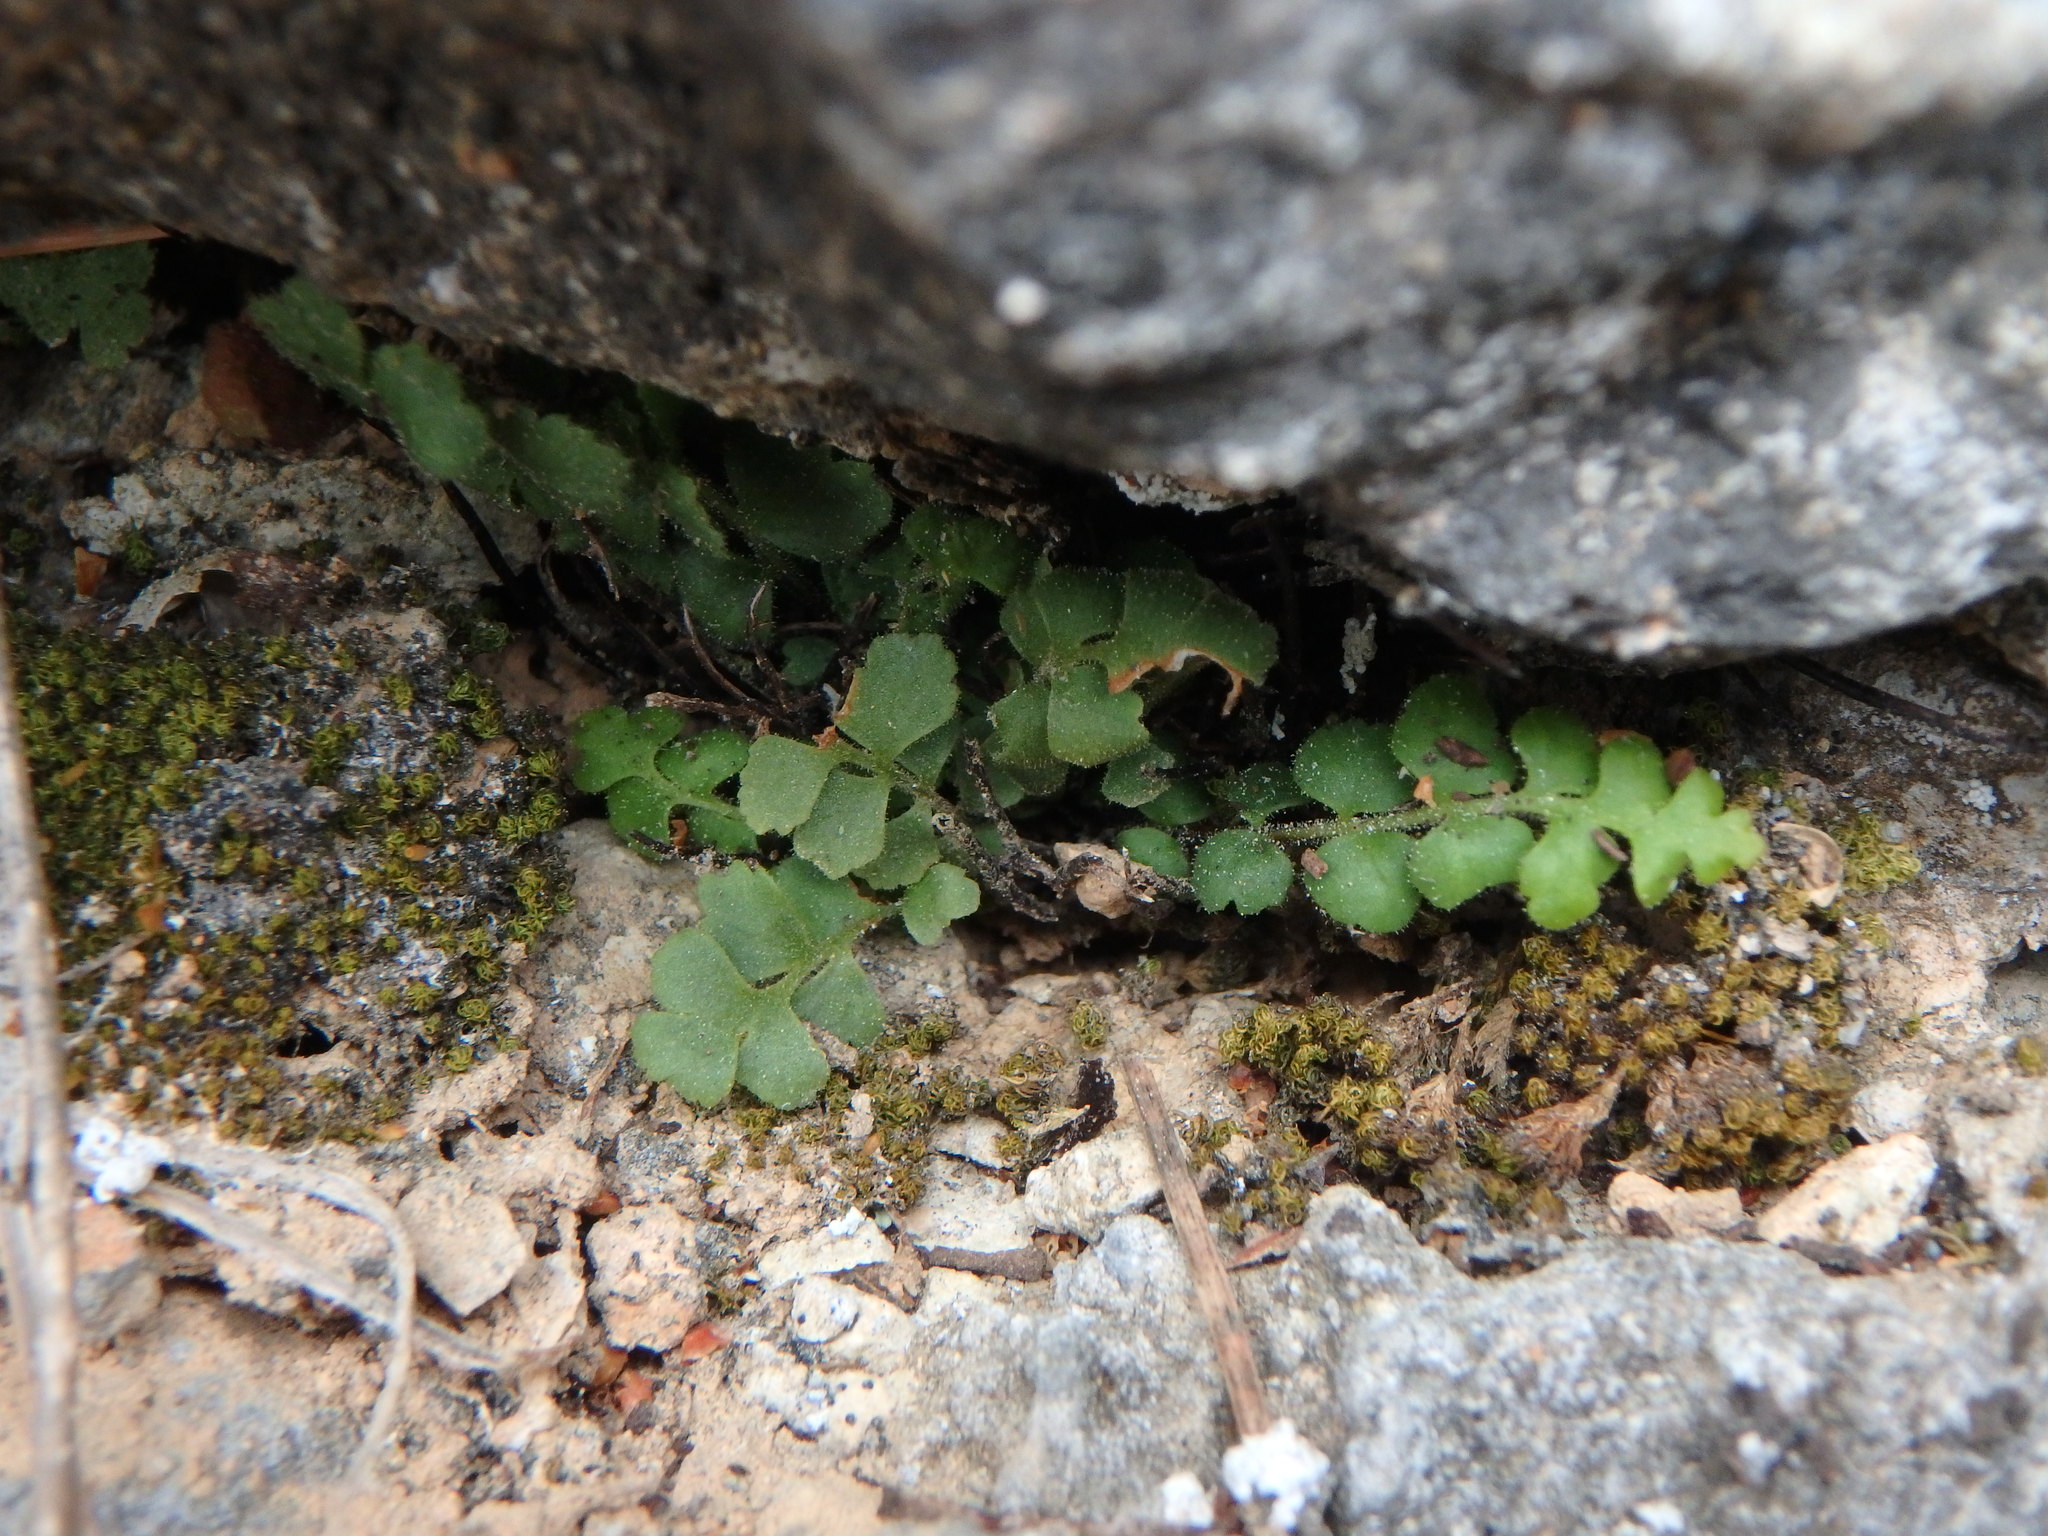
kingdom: Plantae
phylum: Tracheophyta
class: Polypodiopsida
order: Polypodiales
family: Aspleniaceae
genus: Asplenium
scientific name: Asplenium petrarchae
